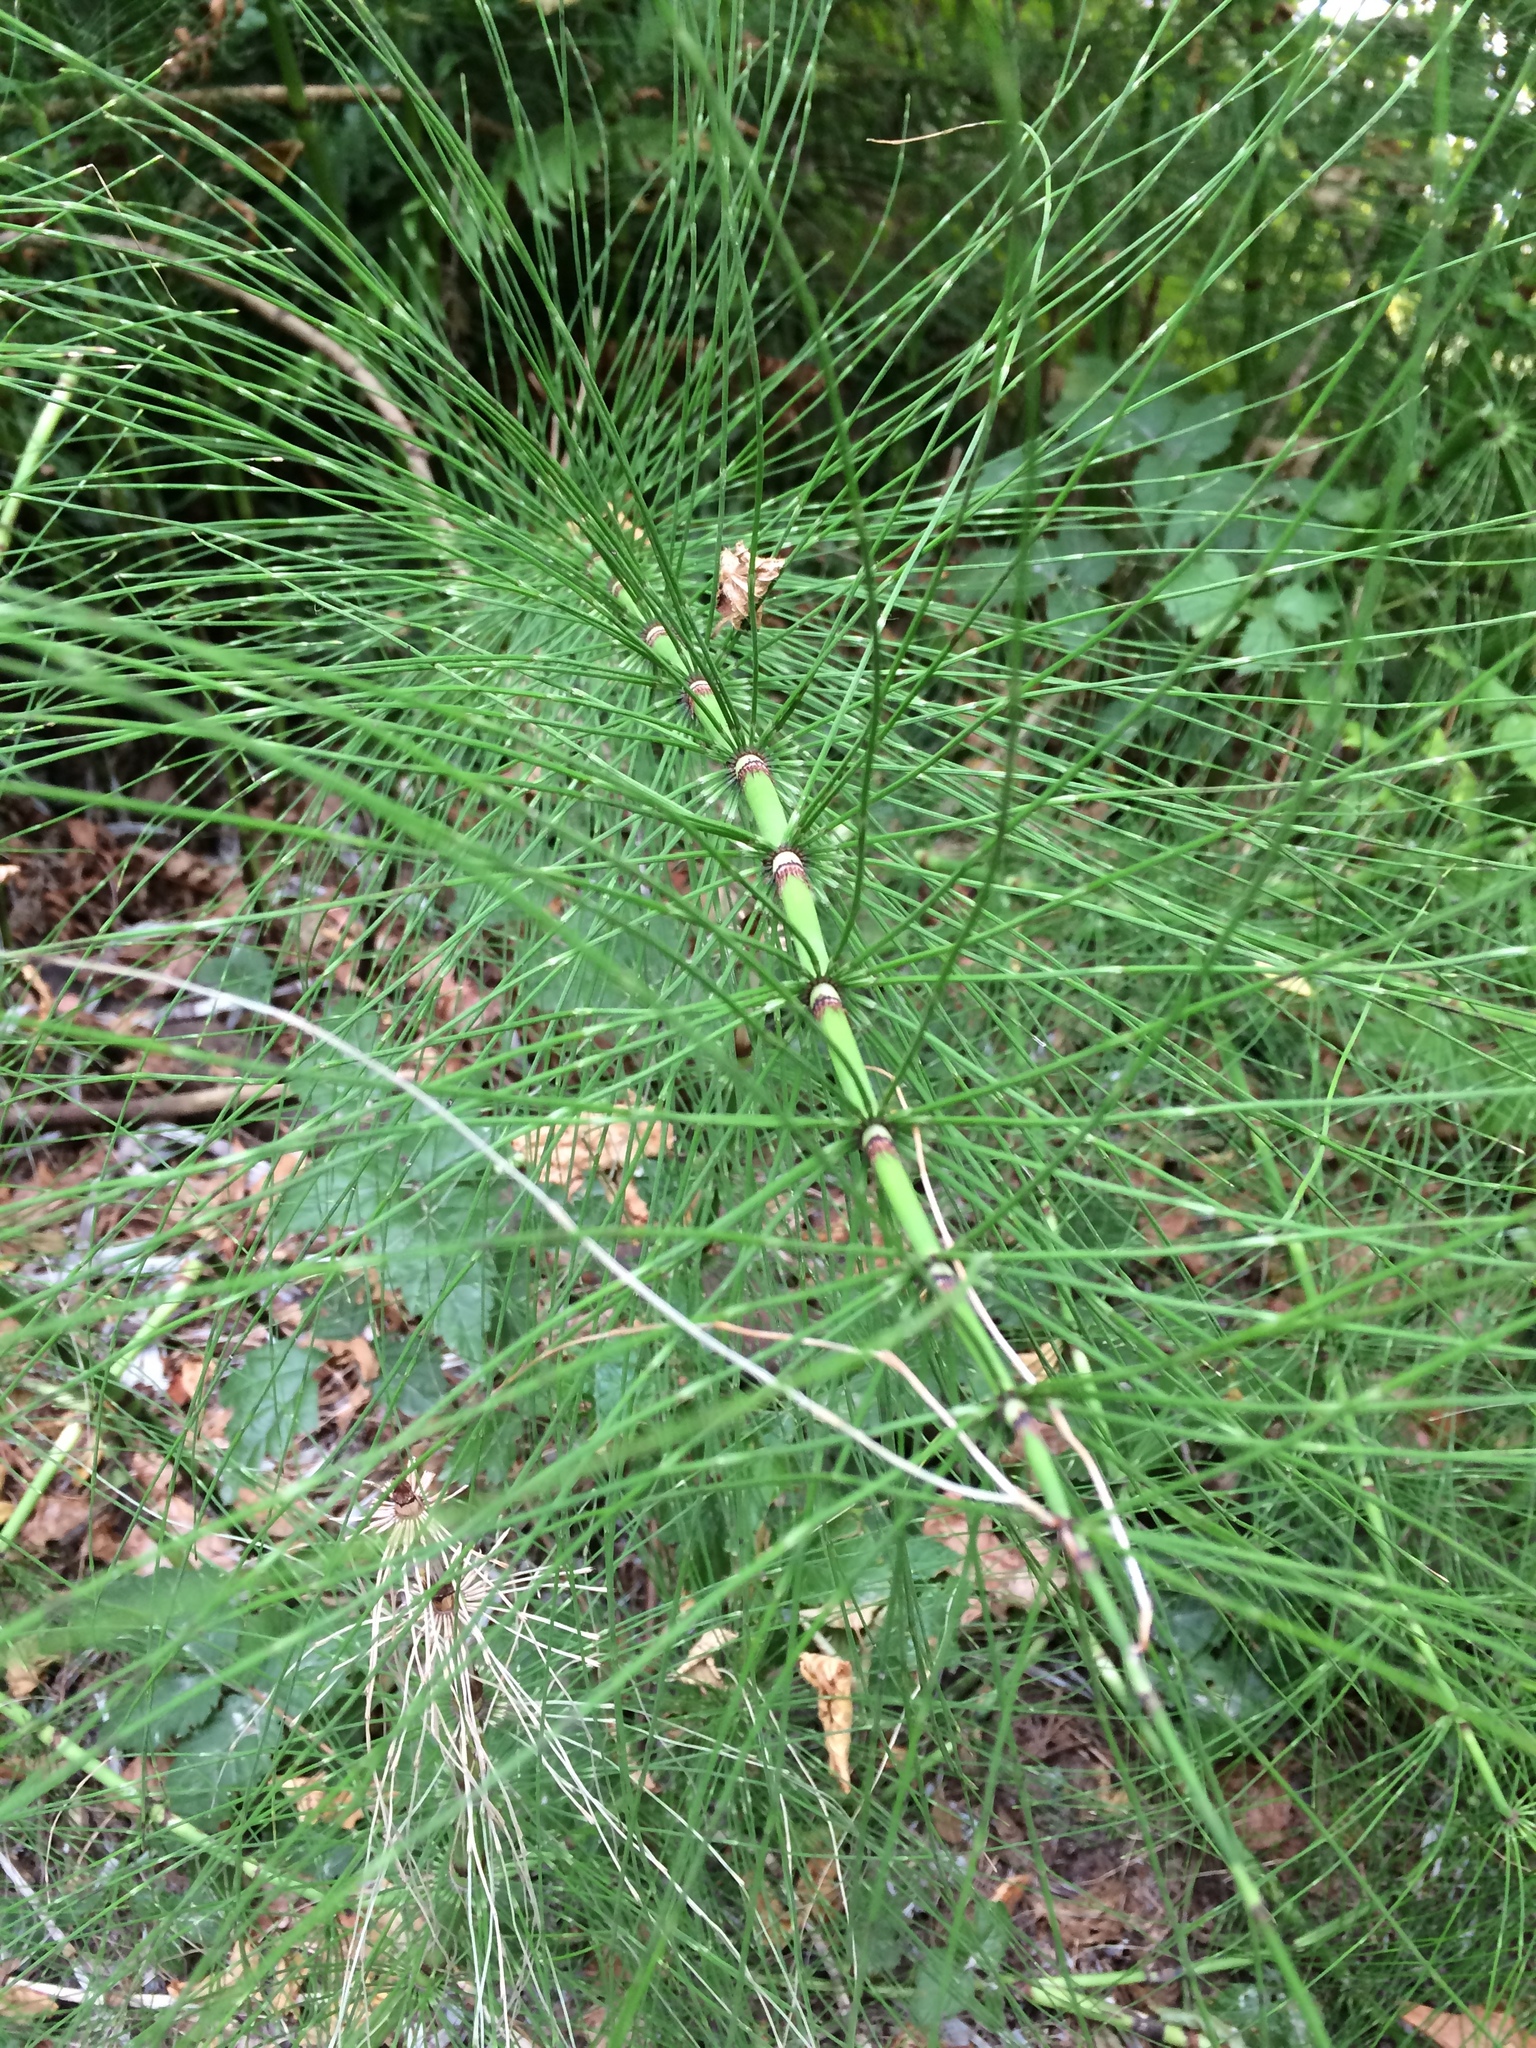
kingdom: Plantae
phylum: Tracheophyta
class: Polypodiopsida
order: Equisetales
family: Equisetaceae
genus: Equisetum
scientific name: Equisetum telmateia
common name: Great horsetail
